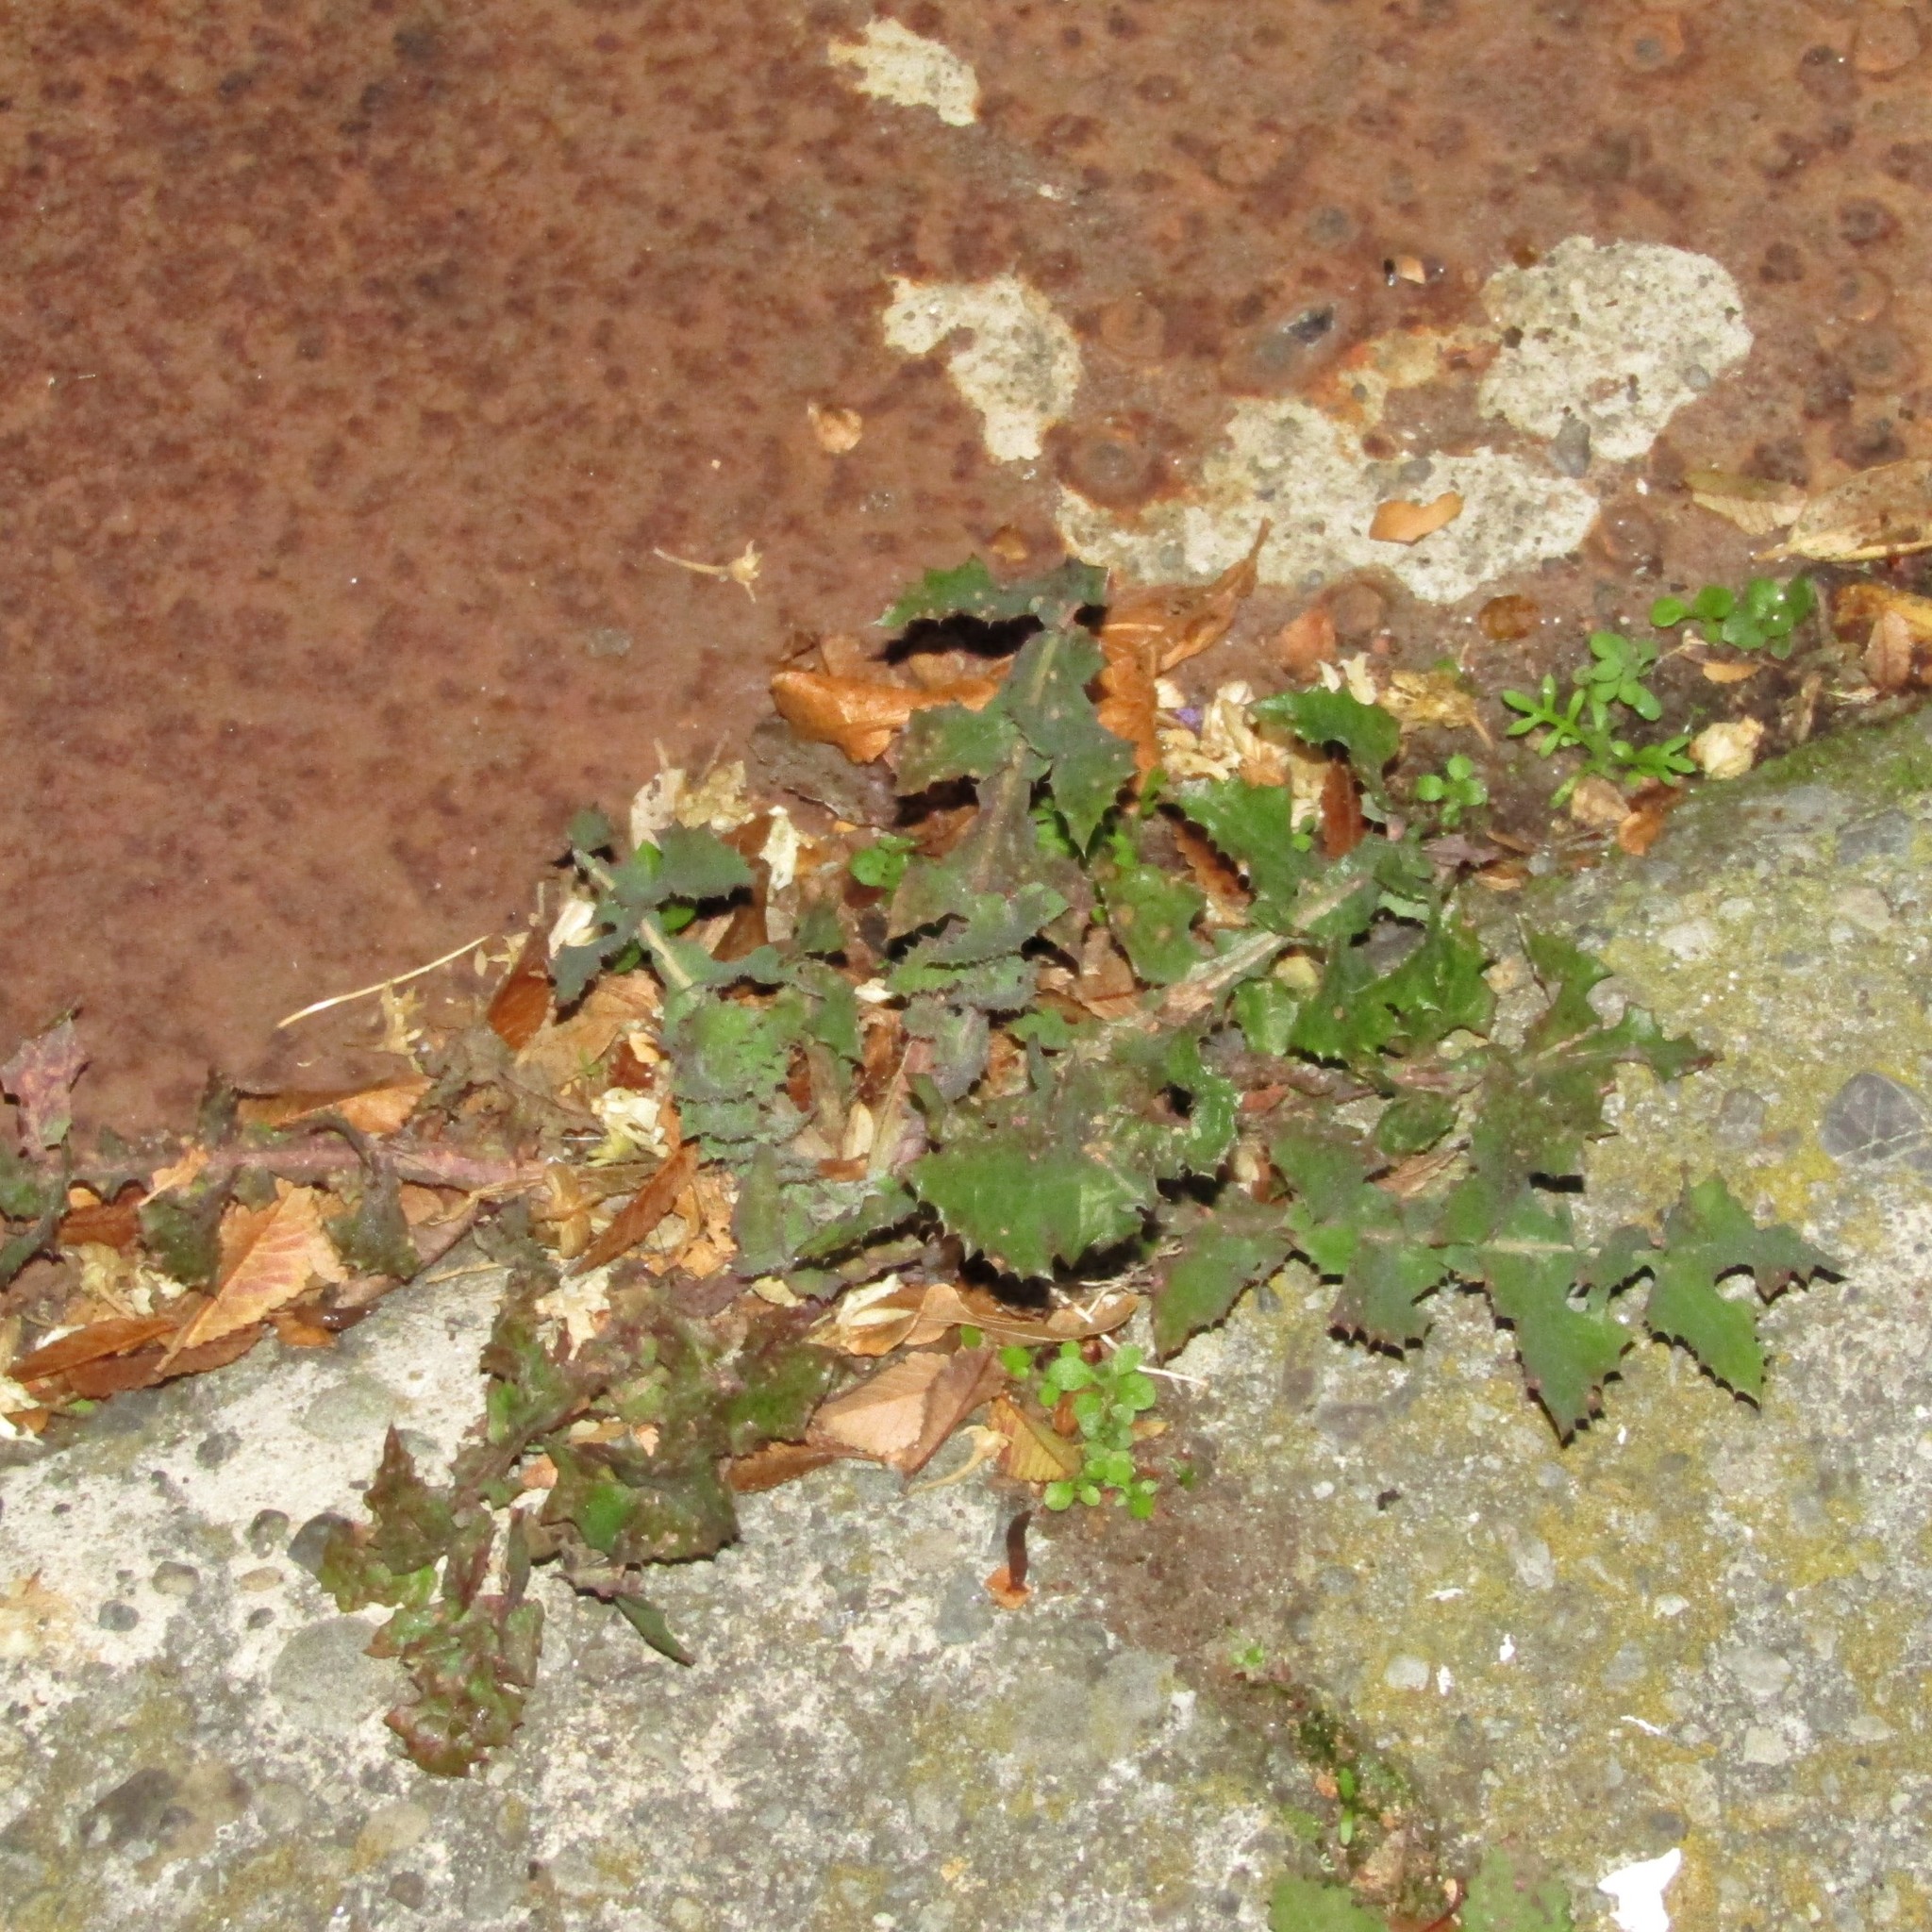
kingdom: Plantae
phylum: Tracheophyta
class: Magnoliopsida
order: Asterales
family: Asteraceae
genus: Sonchus
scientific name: Sonchus oleraceus
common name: Common sowthistle
